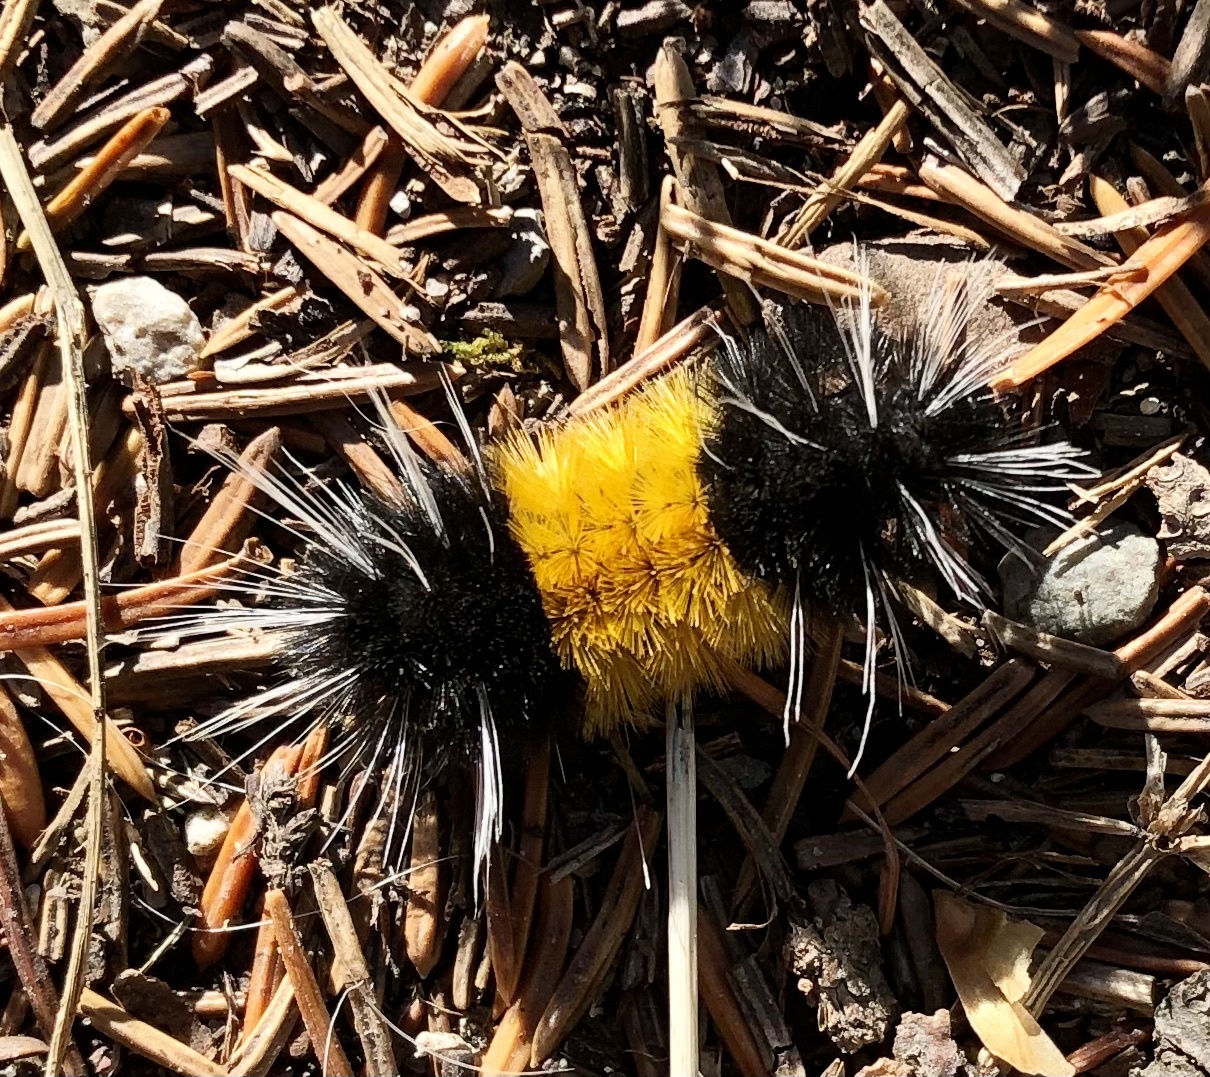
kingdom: Animalia
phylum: Arthropoda
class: Insecta
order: Lepidoptera
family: Erebidae
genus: Lophocampa
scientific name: Lophocampa maculata
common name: Spotted tussock moth
